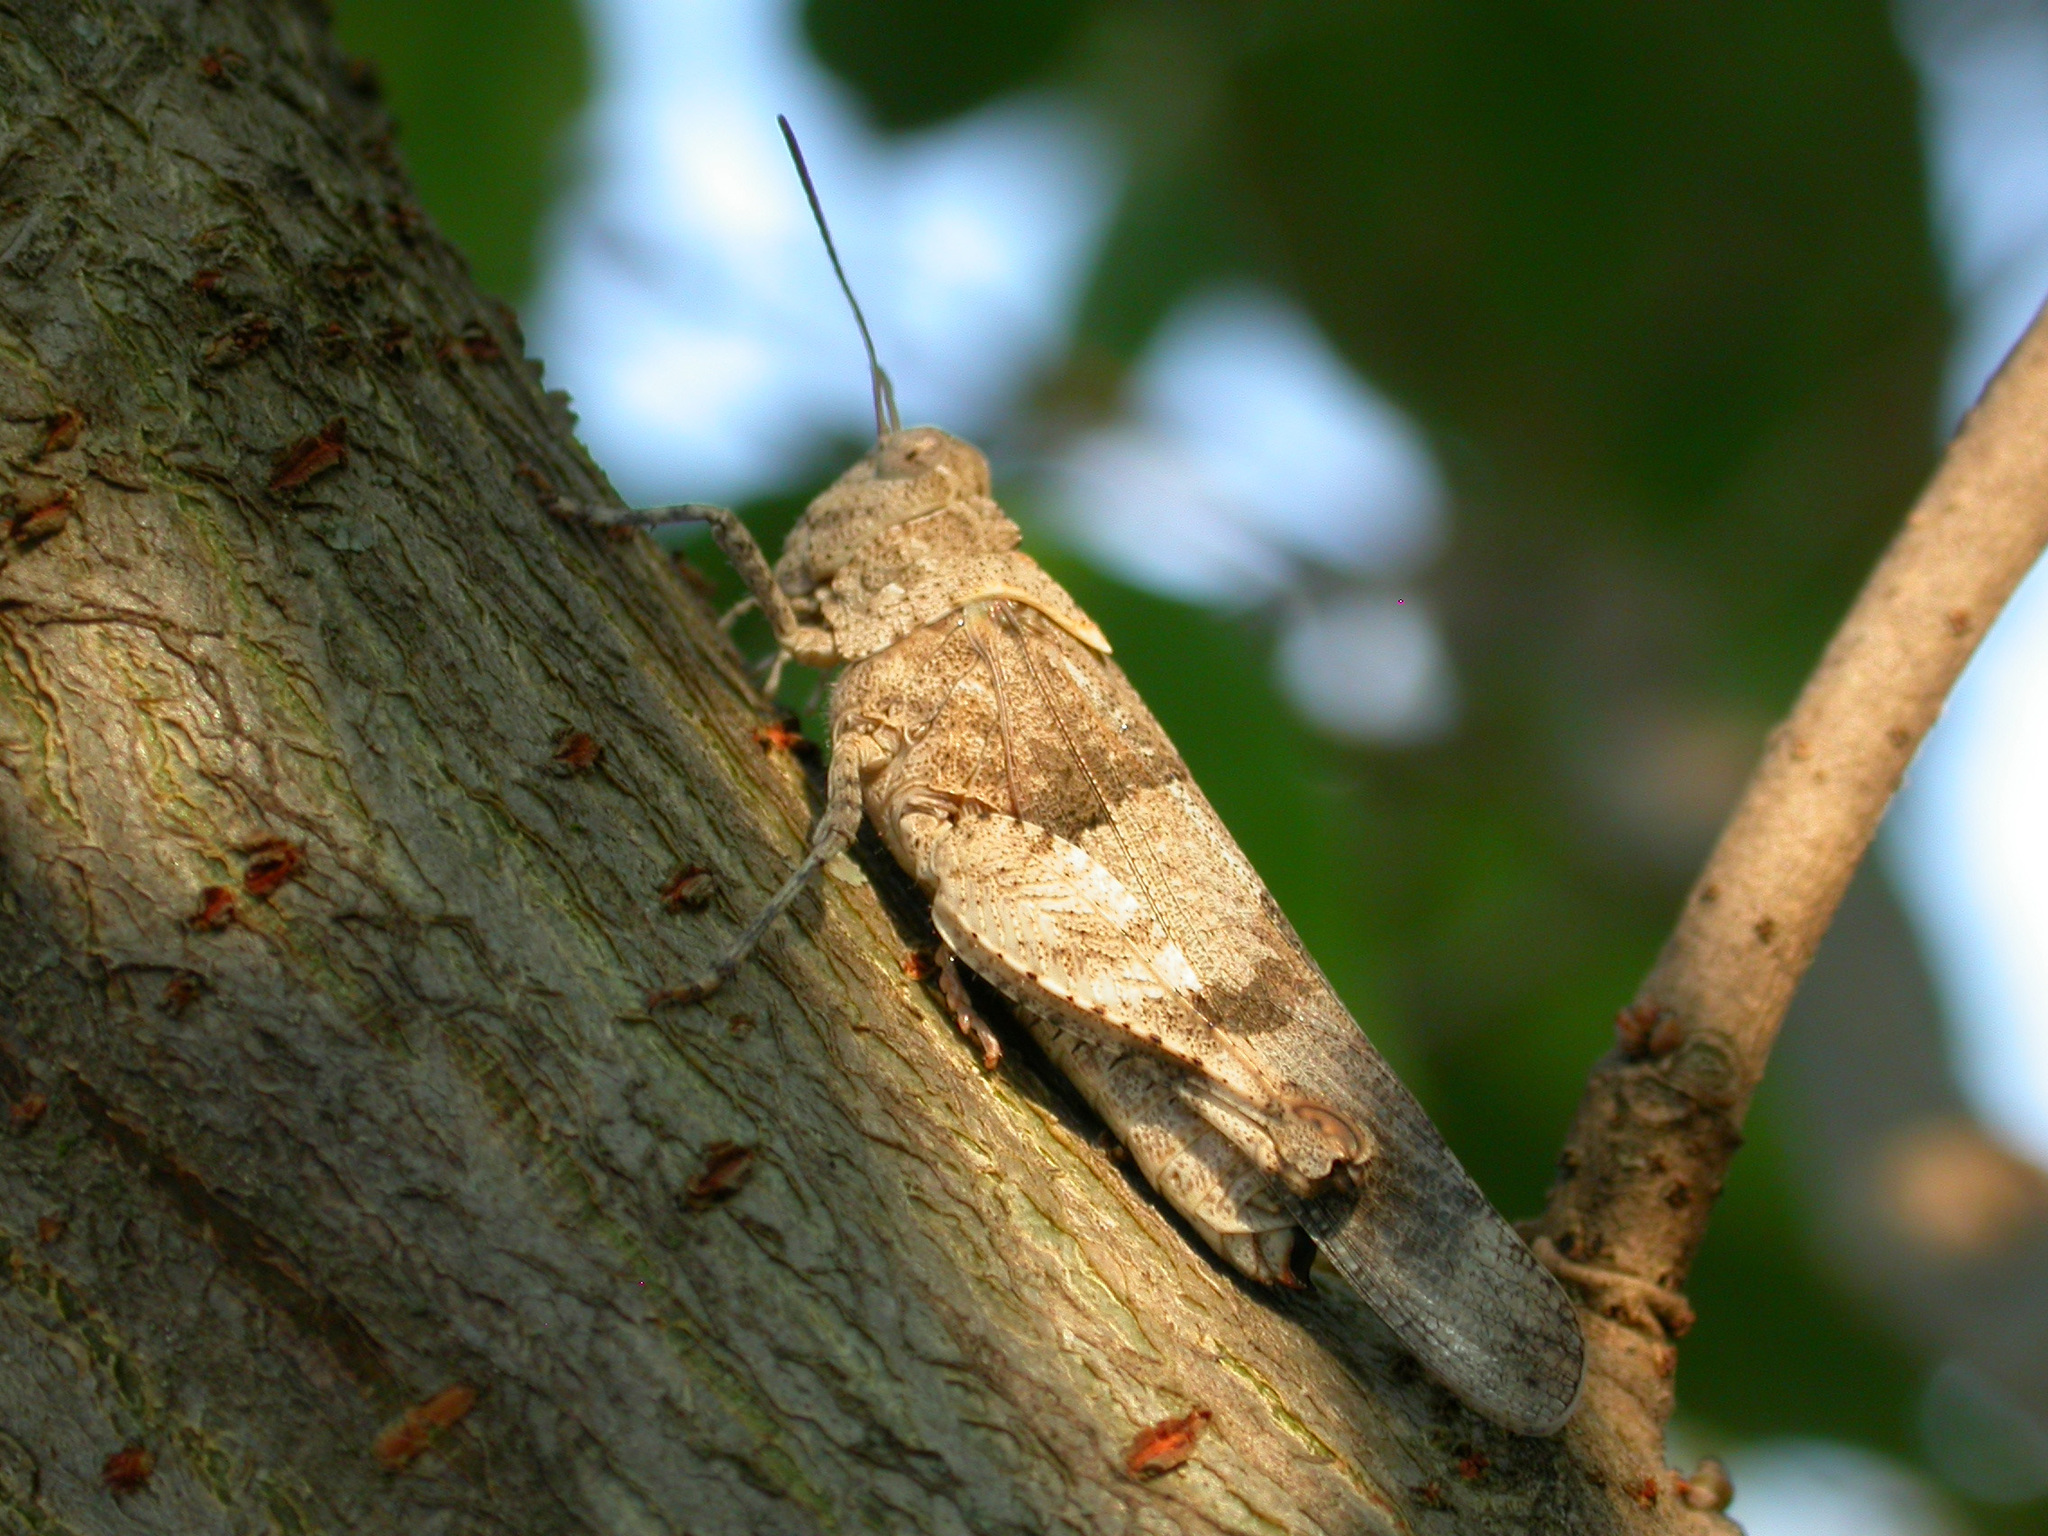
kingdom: Animalia
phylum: Arthropoda
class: Insecta
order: Orthoptera
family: Acrididae
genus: Oedipoda
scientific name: Oedipoda caerulescens
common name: Blue-winged grasshopper
